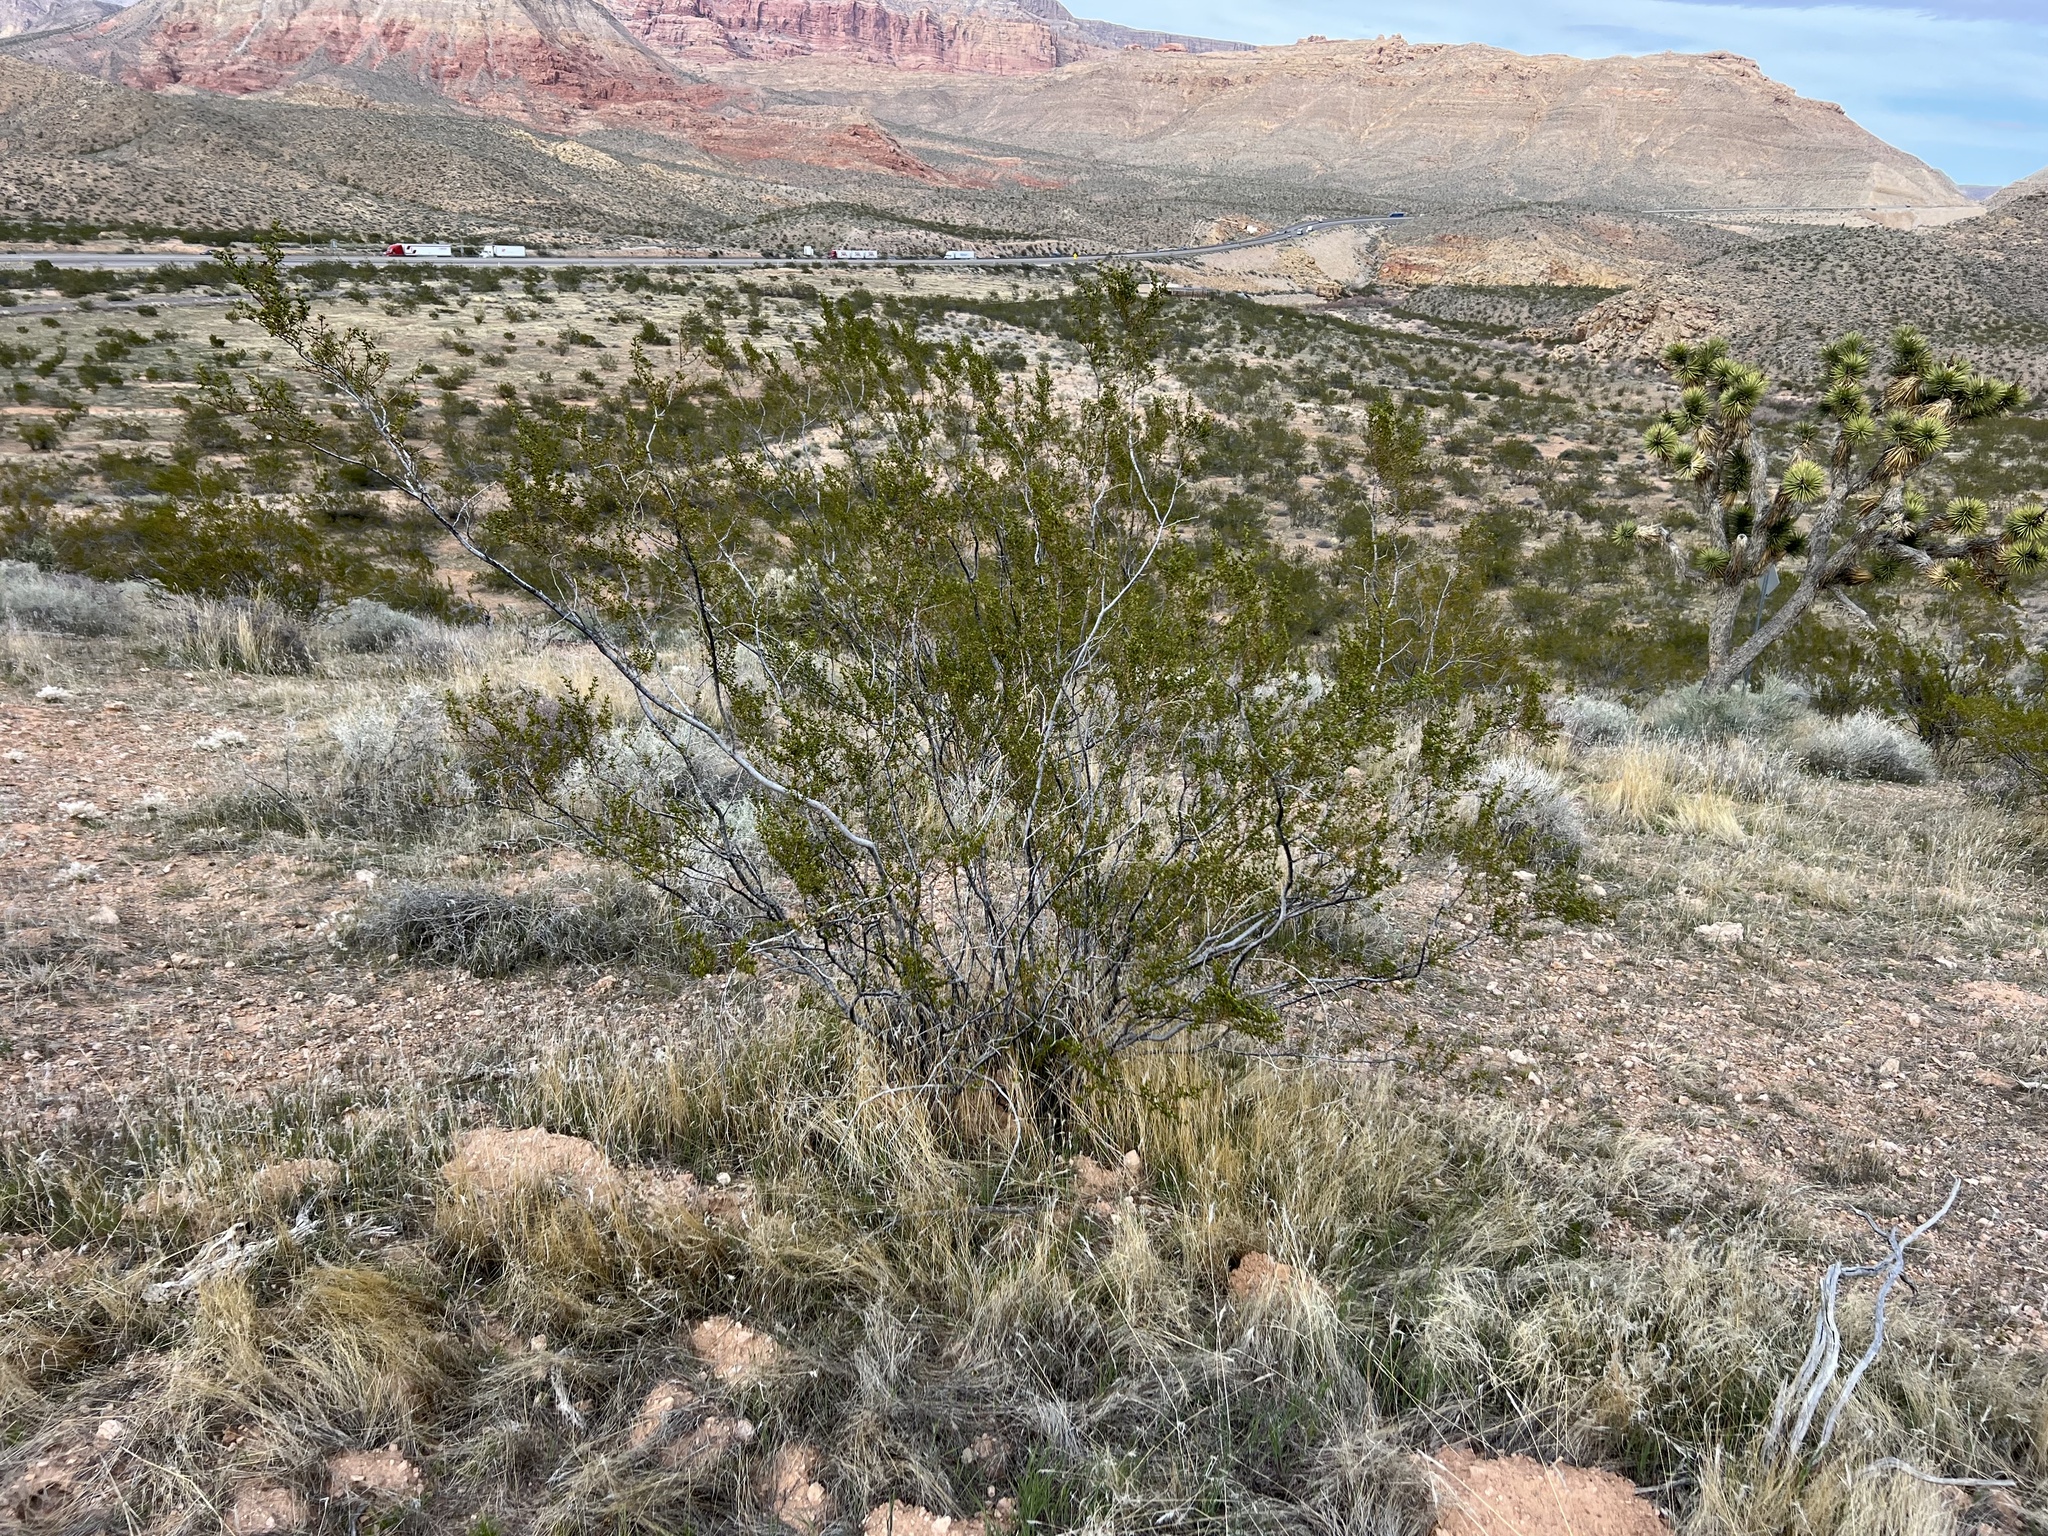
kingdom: Plantae
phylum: Tracheophyta
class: Magnoliopsida
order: Zygophyllales
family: Zygophyllaceae
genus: Larrea
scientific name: Larrea tridentata
